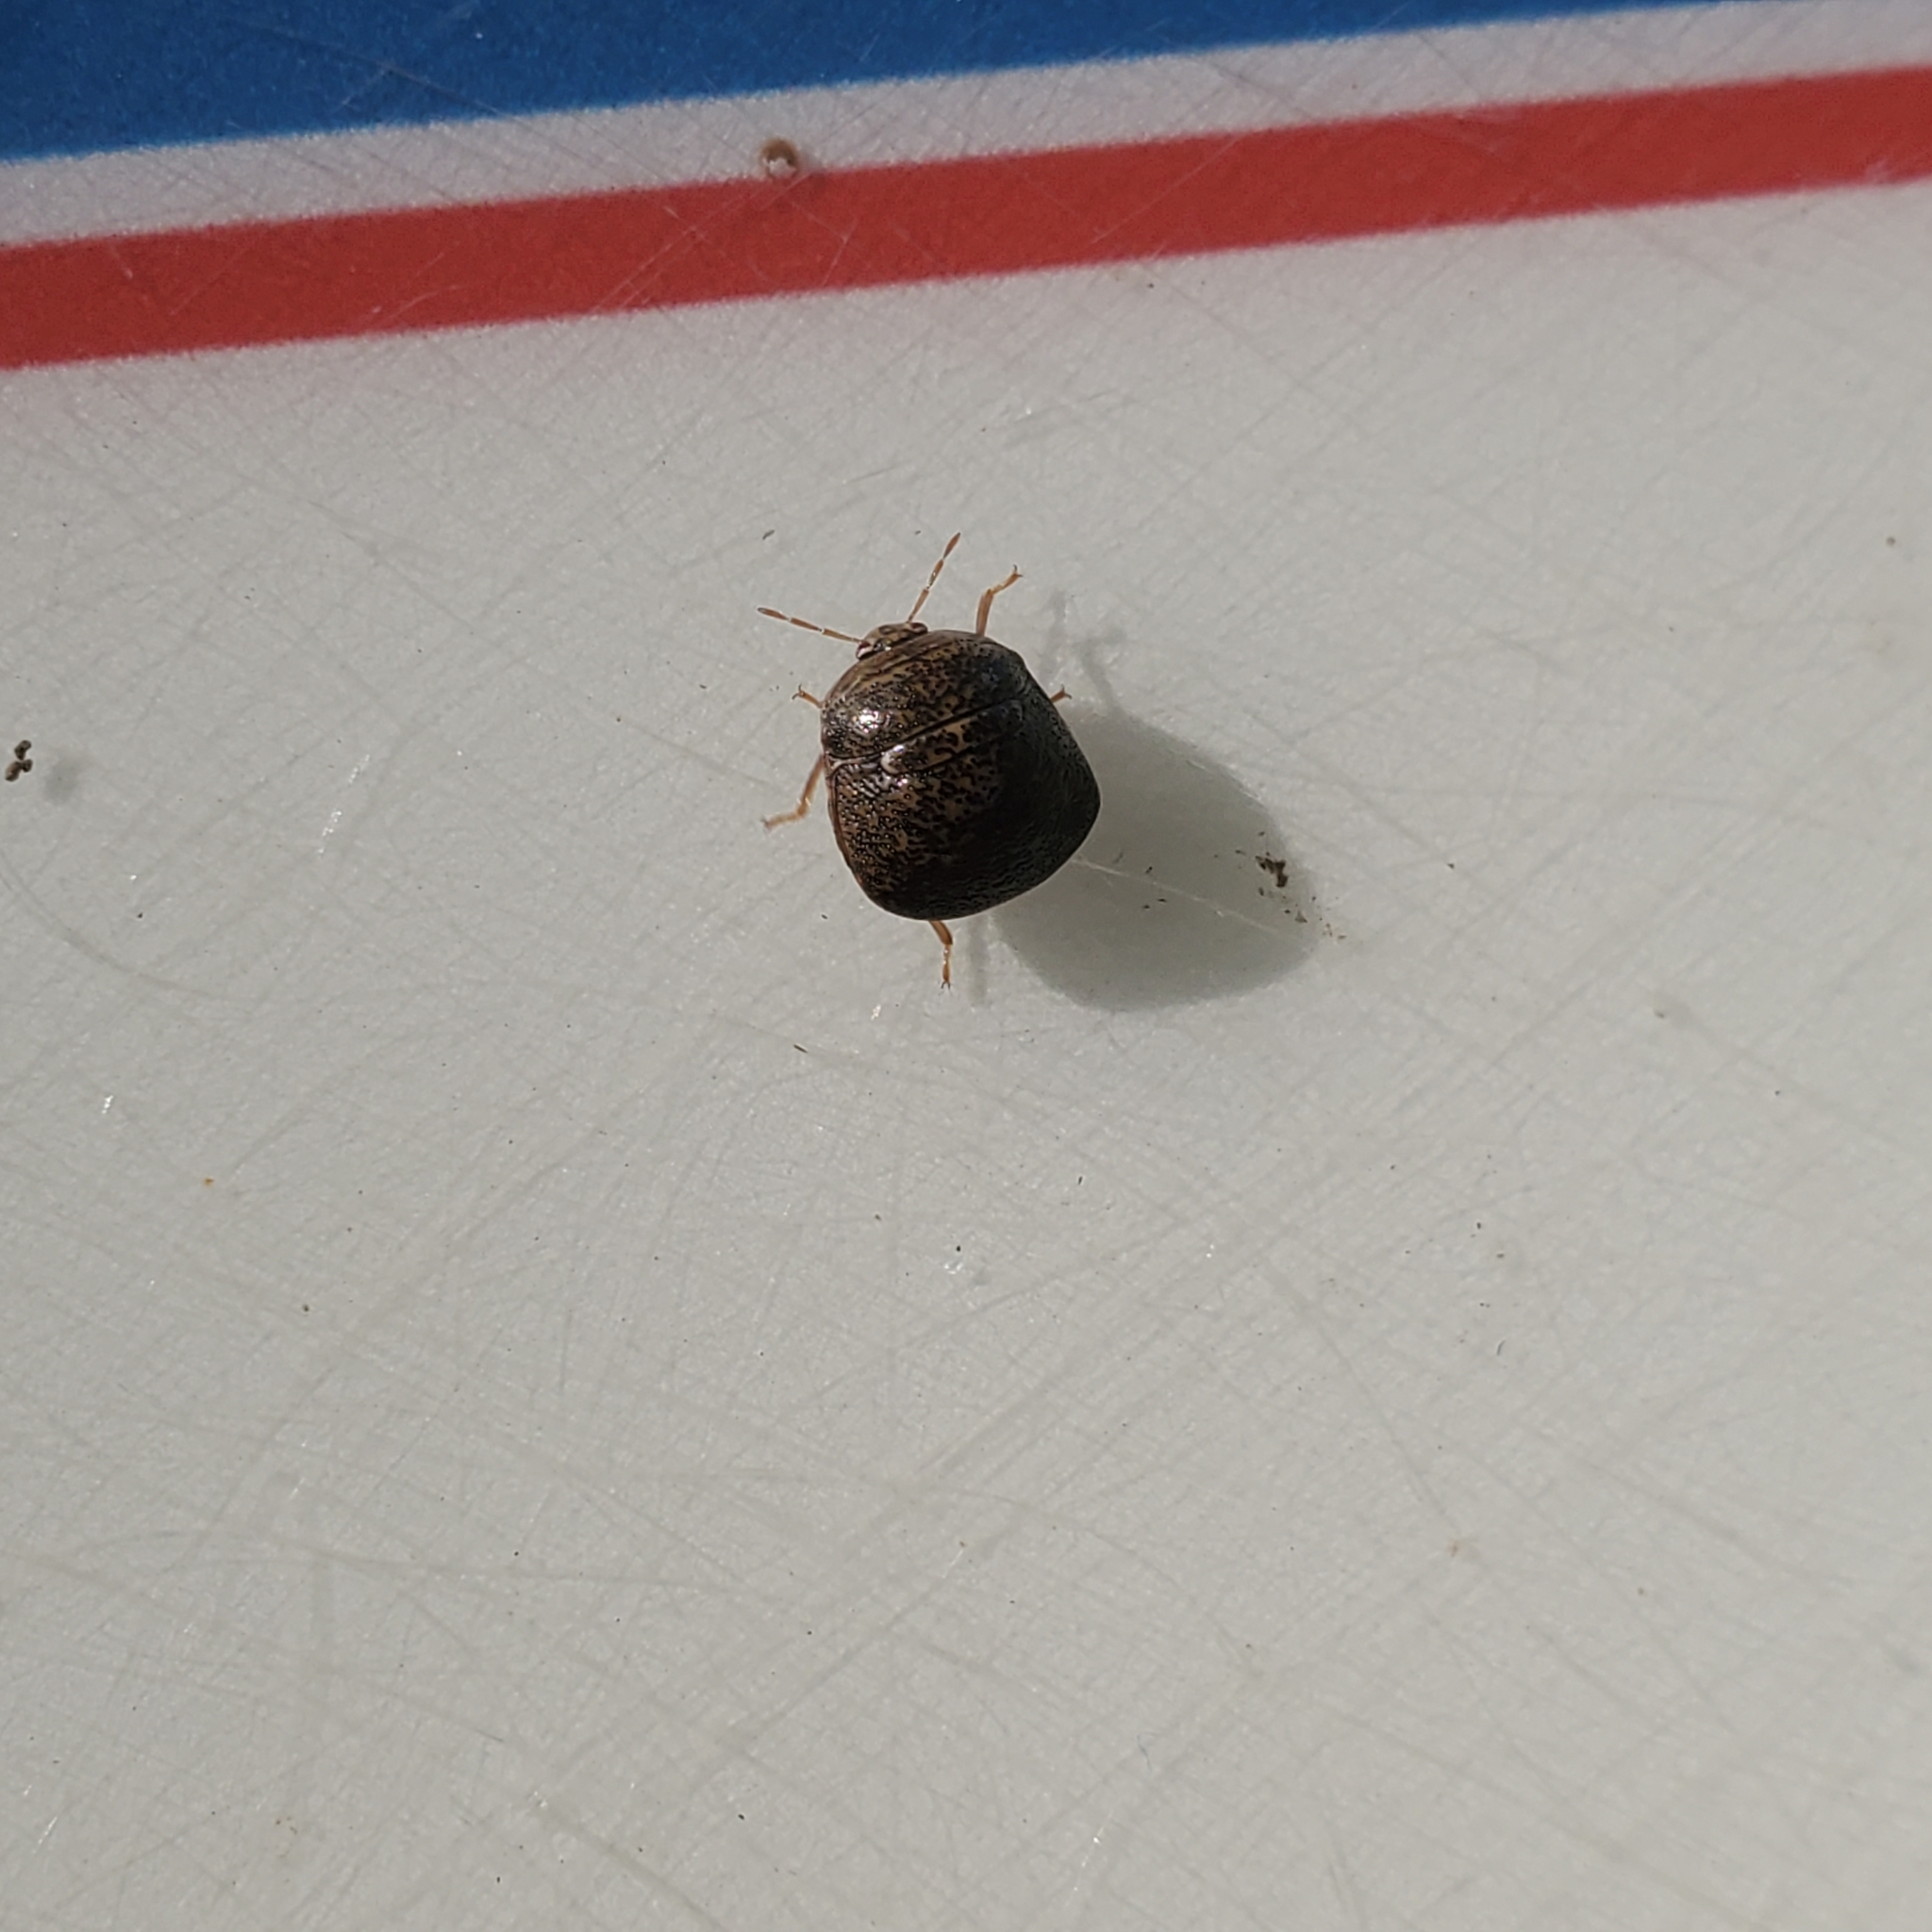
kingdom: Animalia
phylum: Arthropoda
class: Insecta
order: Hemiptera
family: Plataspidae
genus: Megacopta
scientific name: Megacopta cribraria
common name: Bean plataspid
